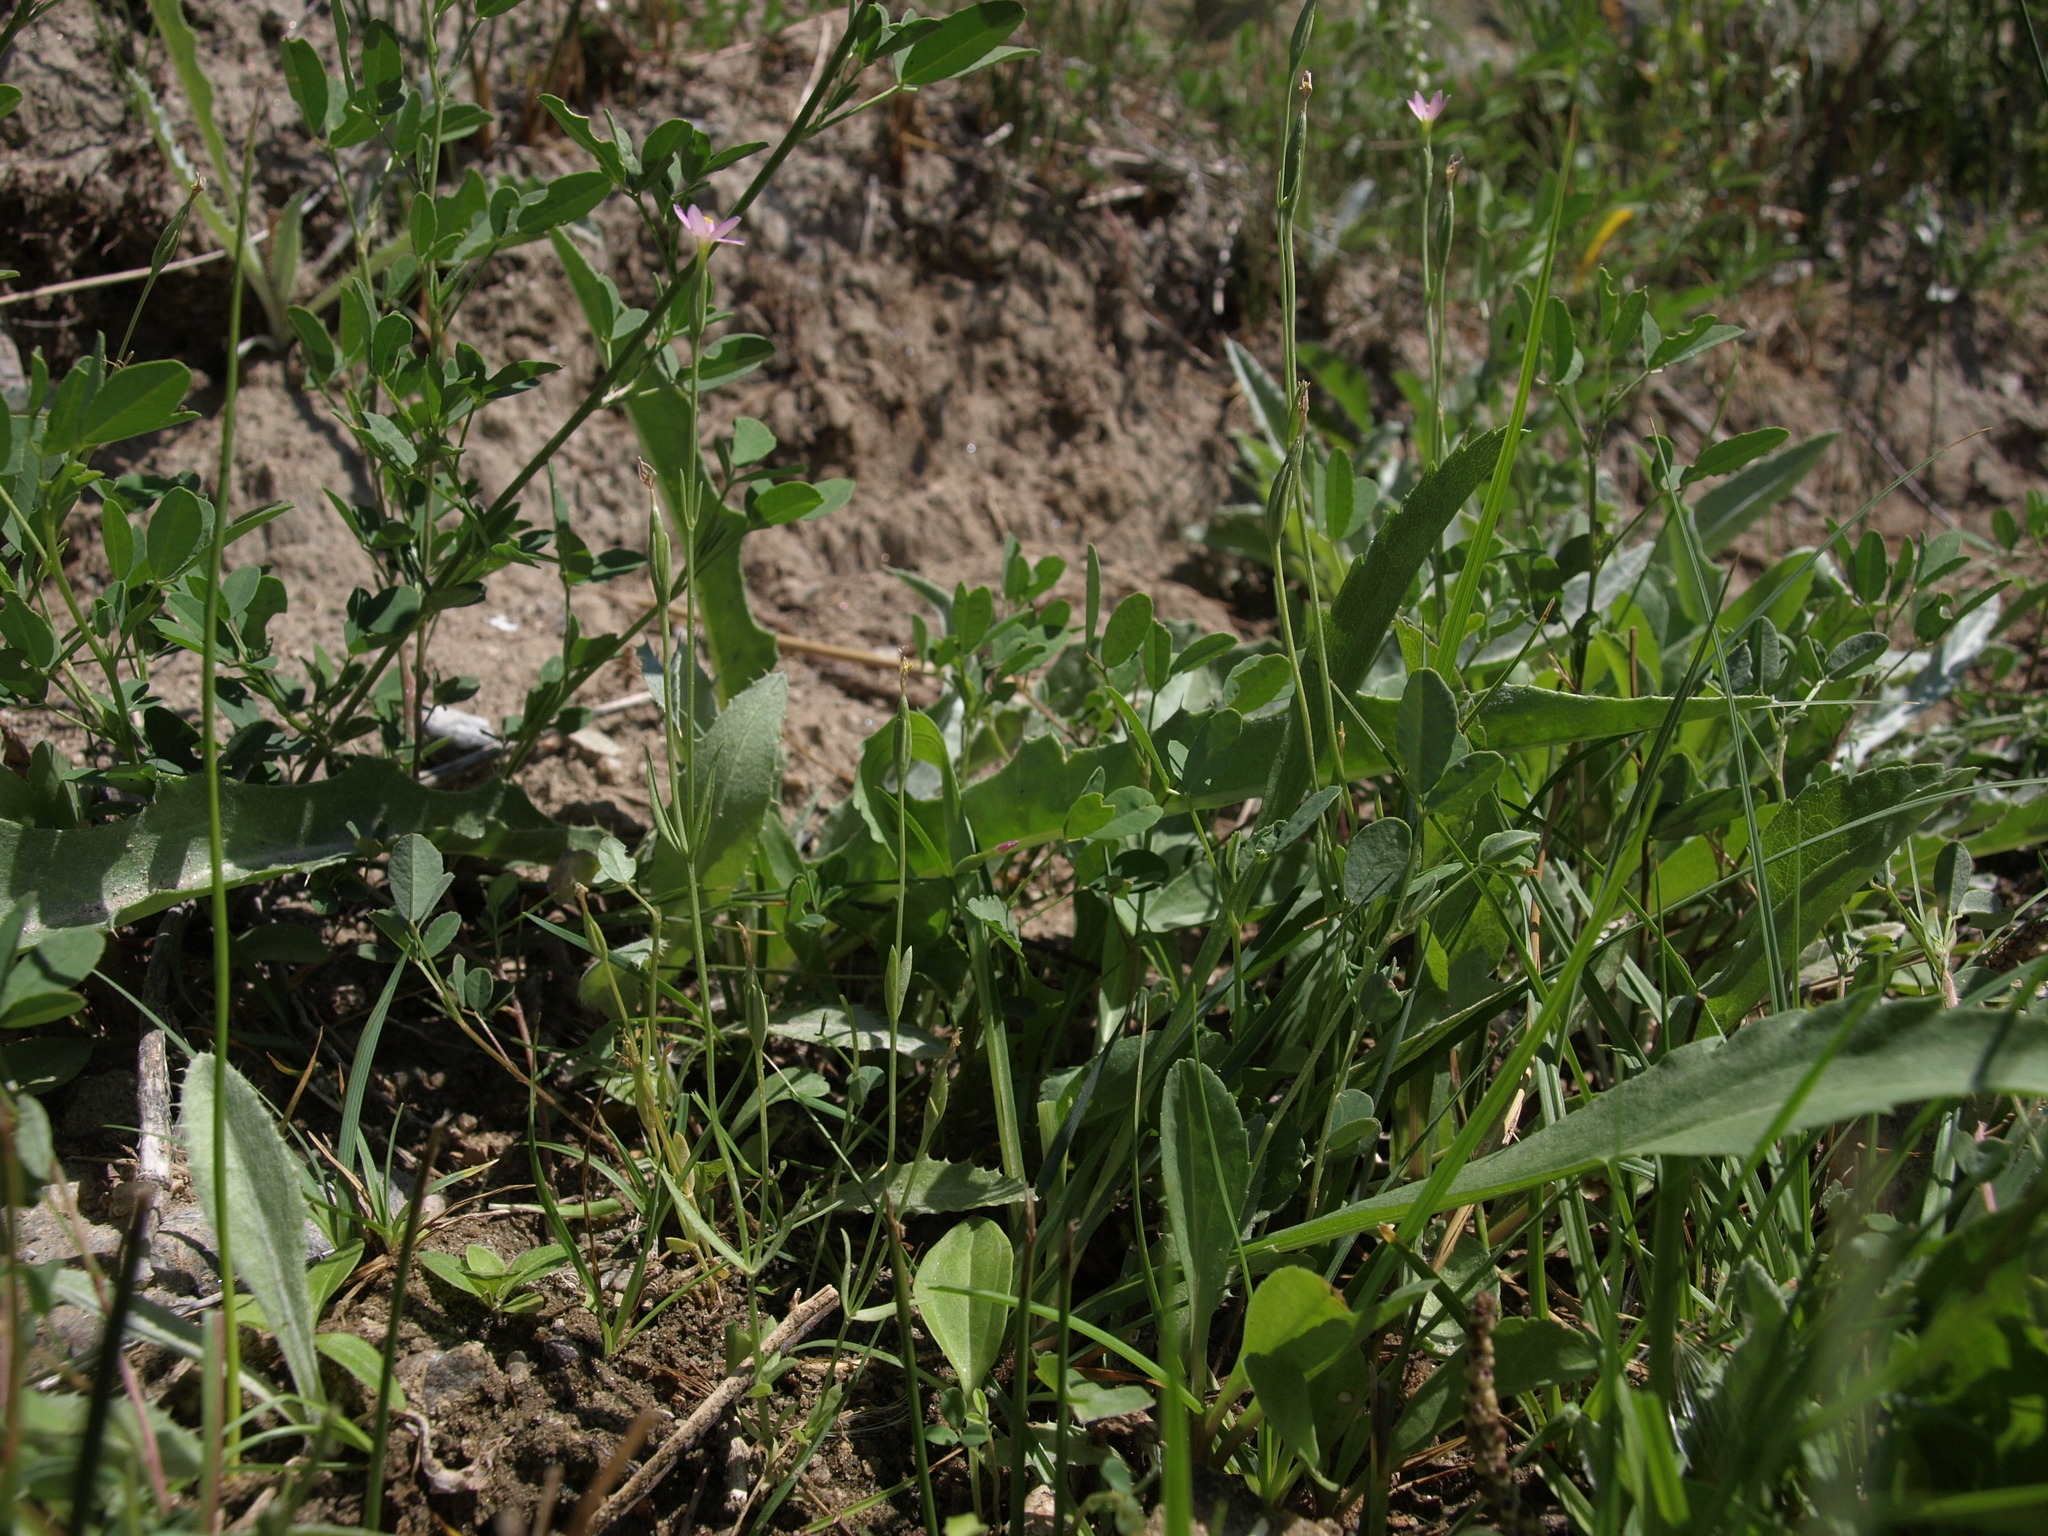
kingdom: Plantae
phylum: Tracheophyta
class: Magnoliopsida
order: Gentianales
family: Gentianaceae
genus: Zeltnera
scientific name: Zeltnera exaltata
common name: Great basin centaury
